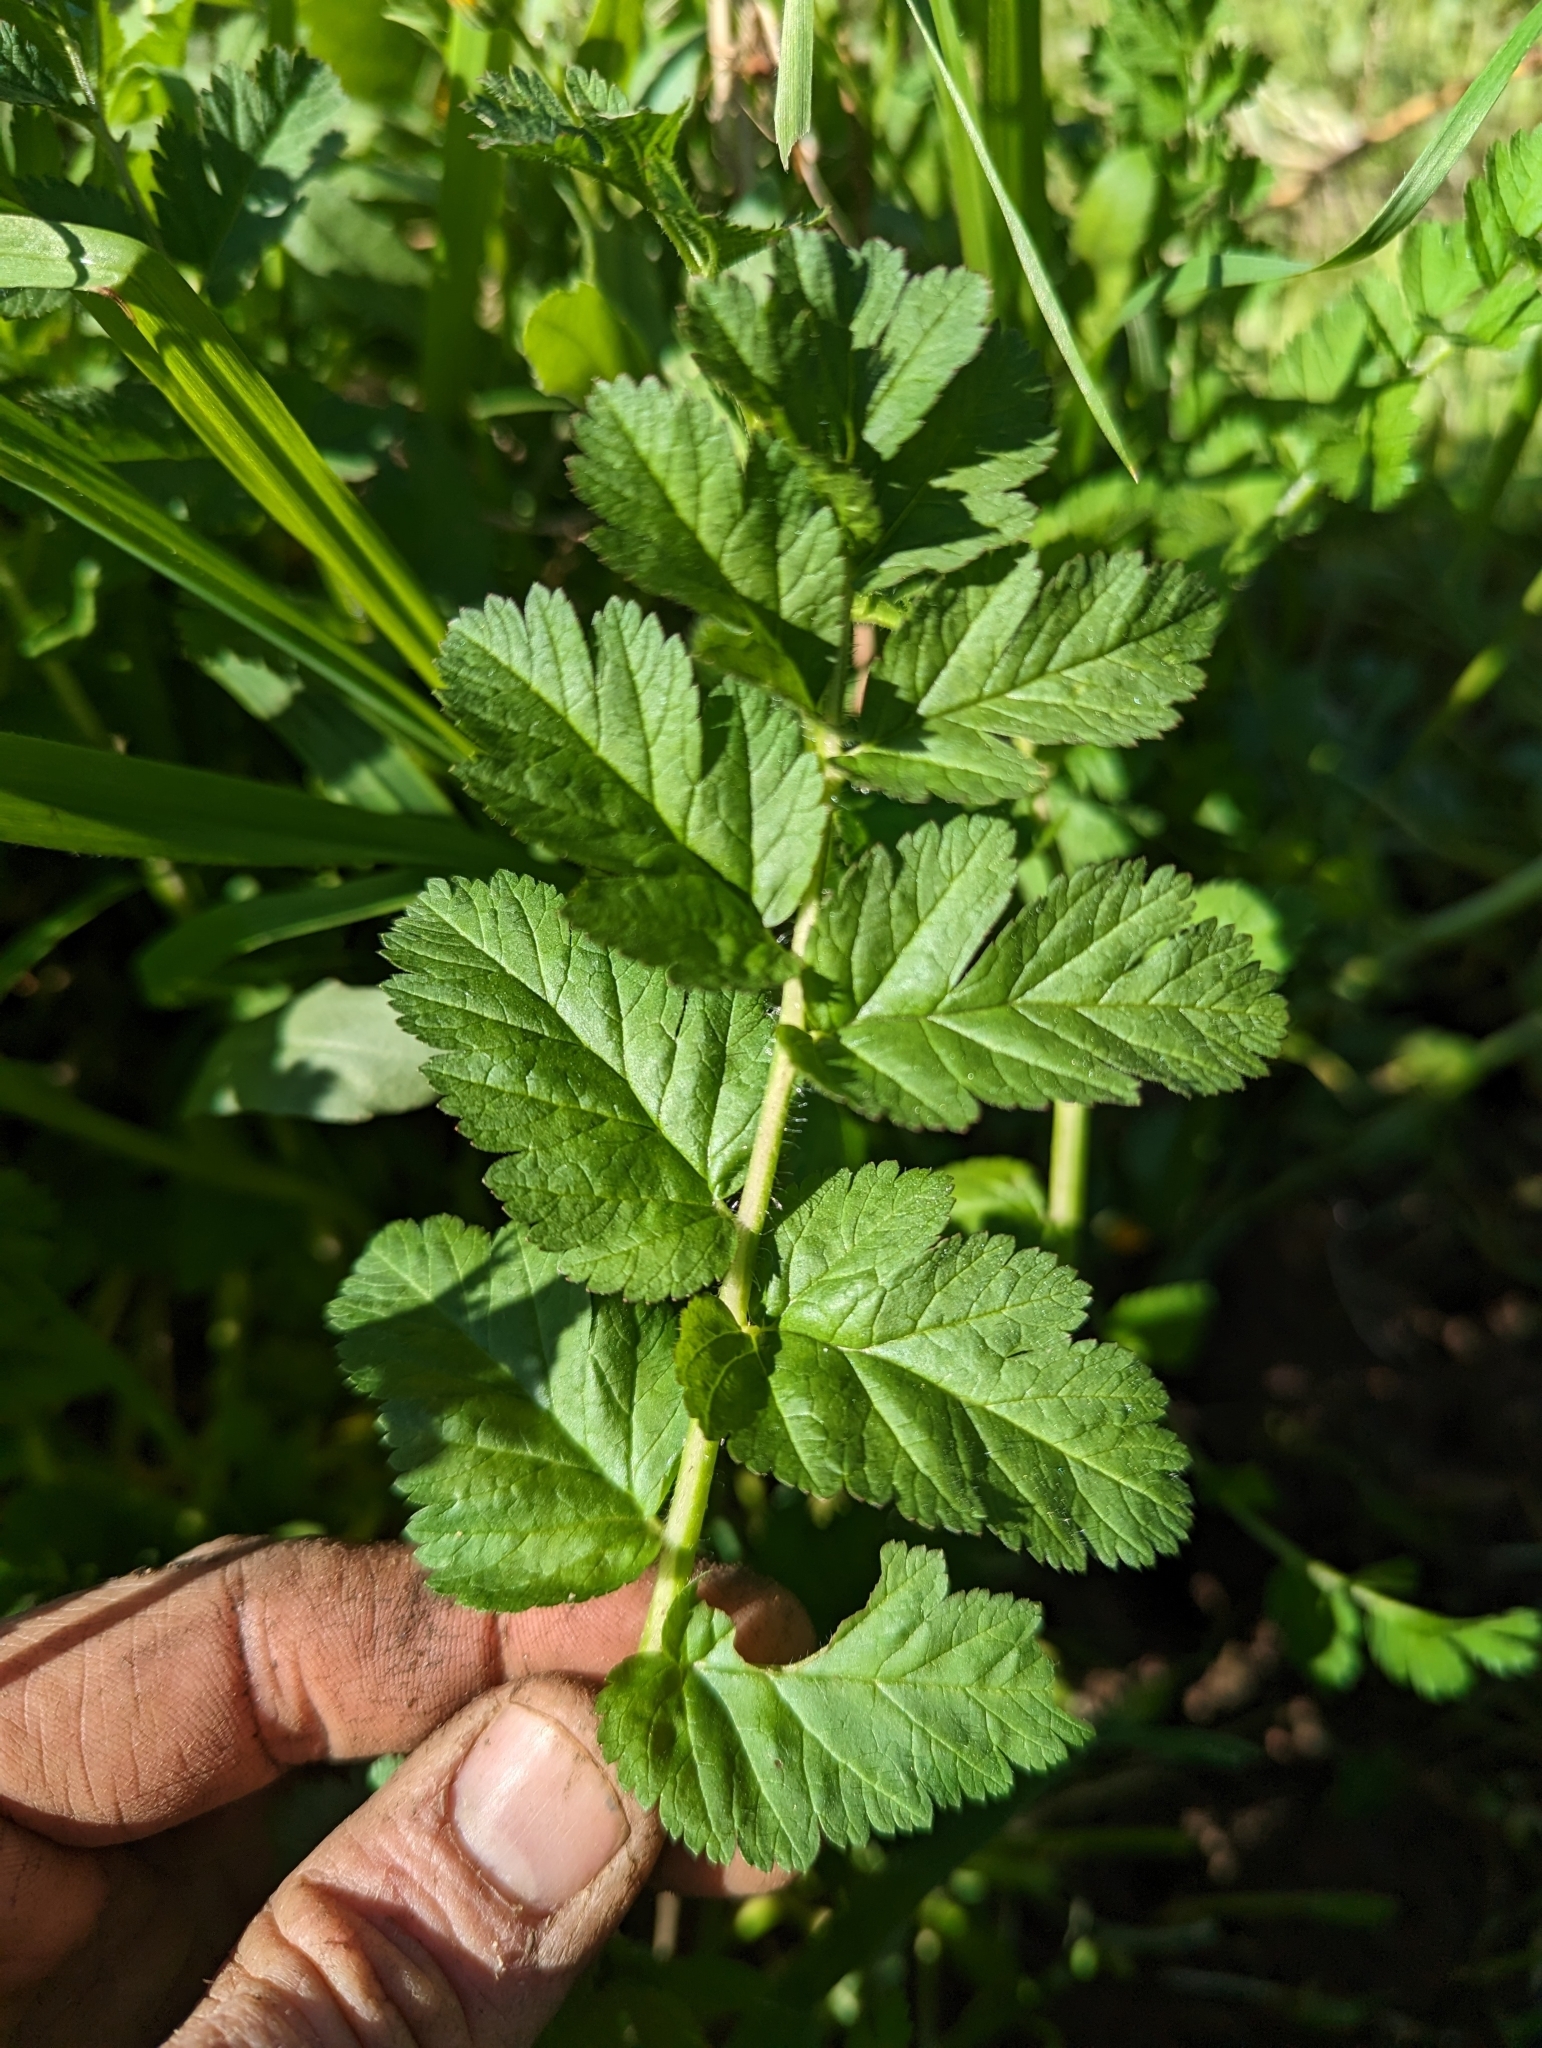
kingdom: Plantae
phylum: Tracheophyta
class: Magnoliopsida
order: Geraniales
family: Geraniaceae
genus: Erodium
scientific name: Erodium moschatum
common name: Musk stork's-bill
